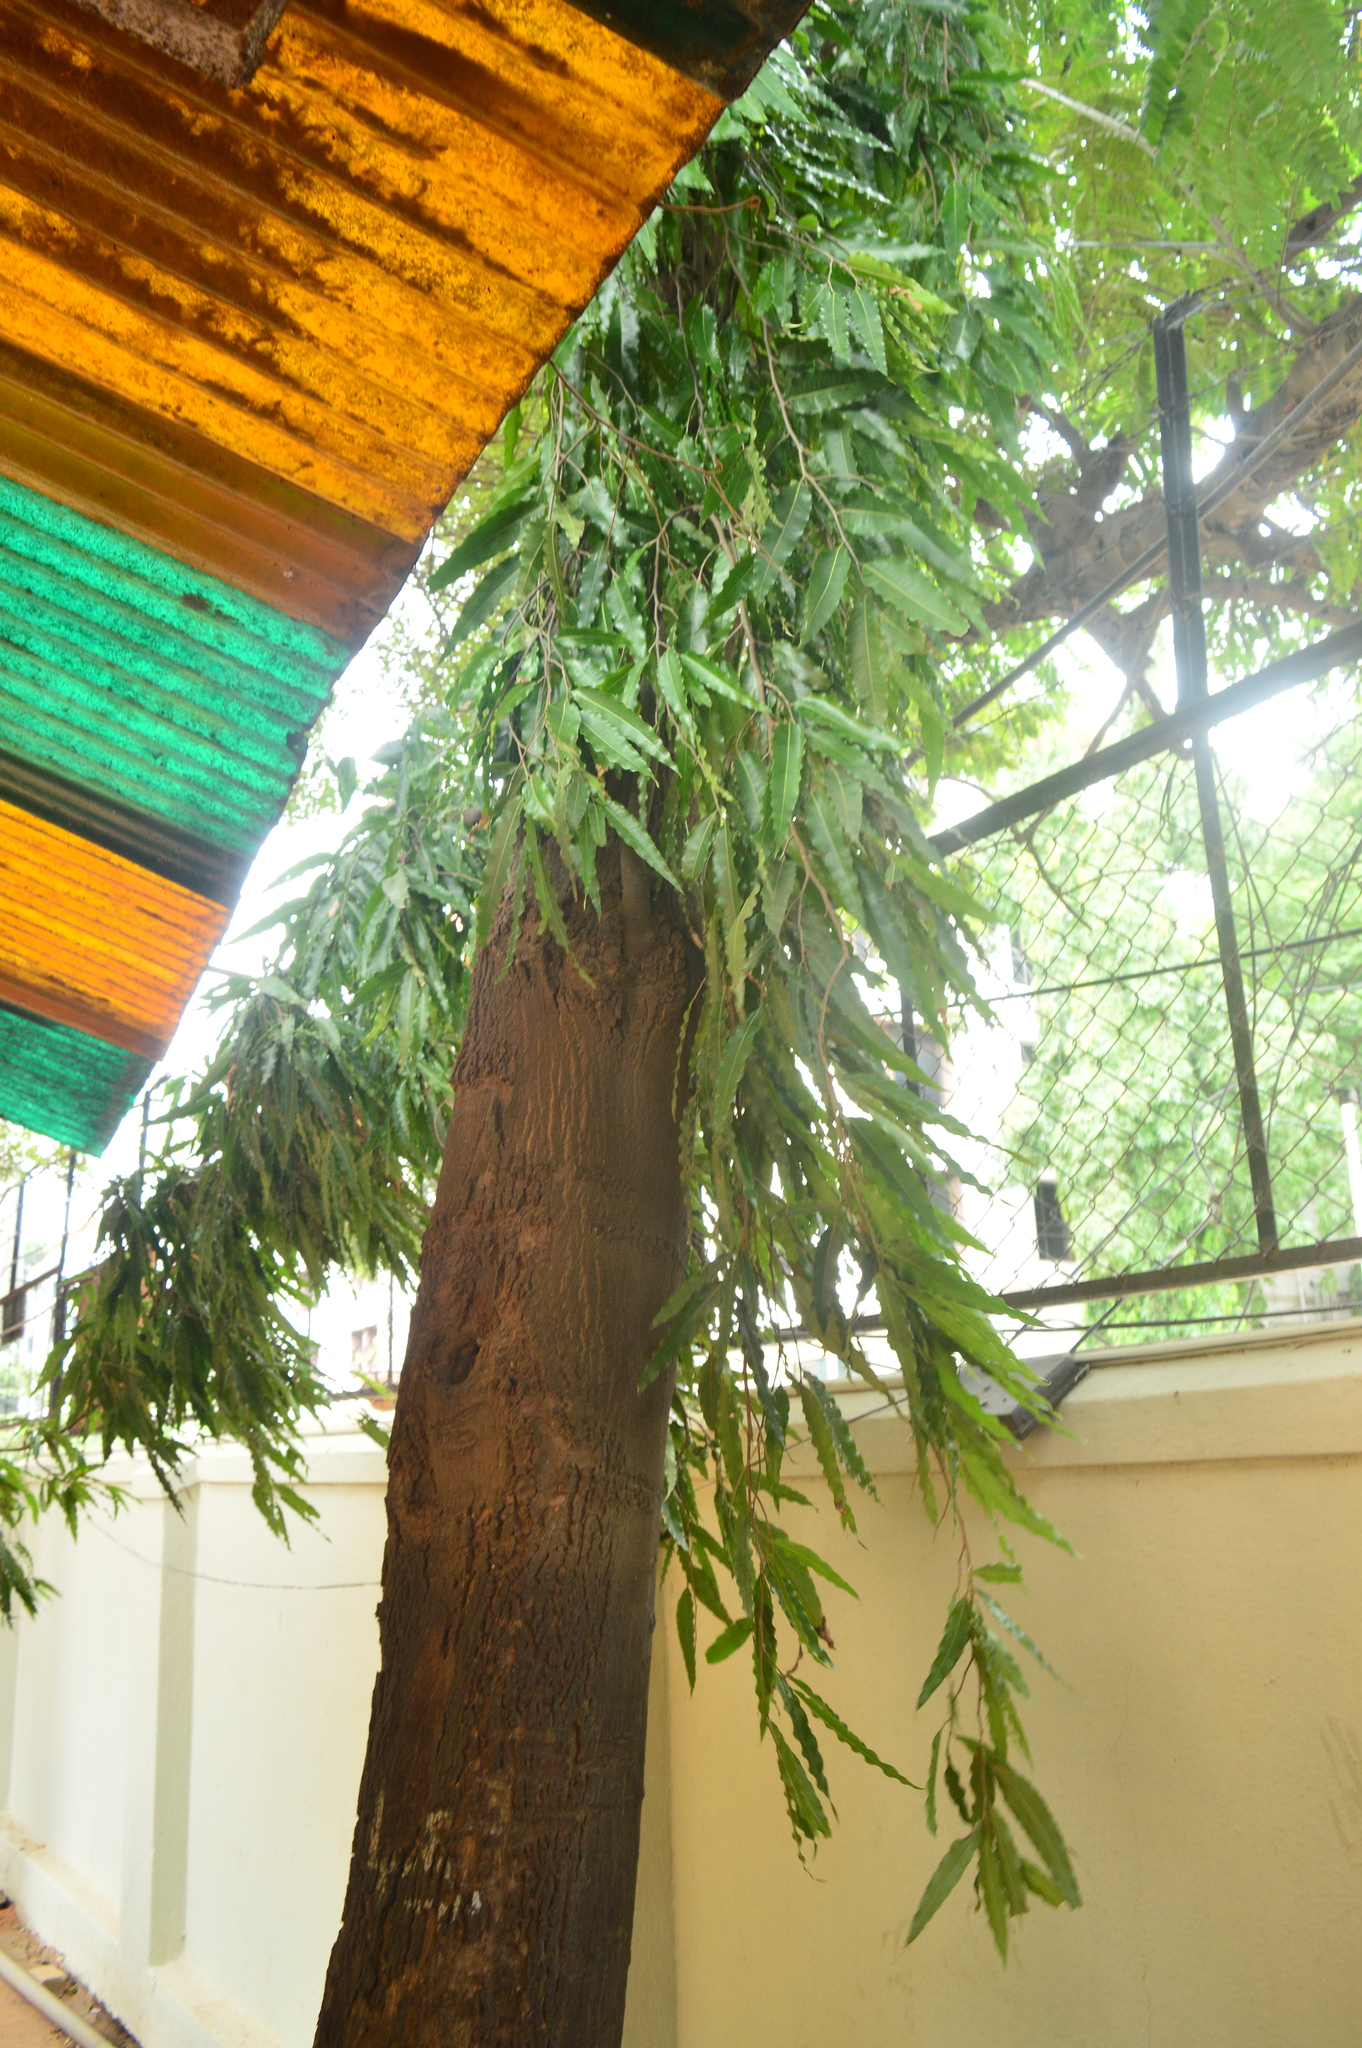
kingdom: Plantae
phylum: Tracheophyta
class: Magnoliopsida
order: Magnoliales
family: Annonaceae
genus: Polyalthia
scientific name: Polyalthia longifolia
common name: Cemetery-tree
